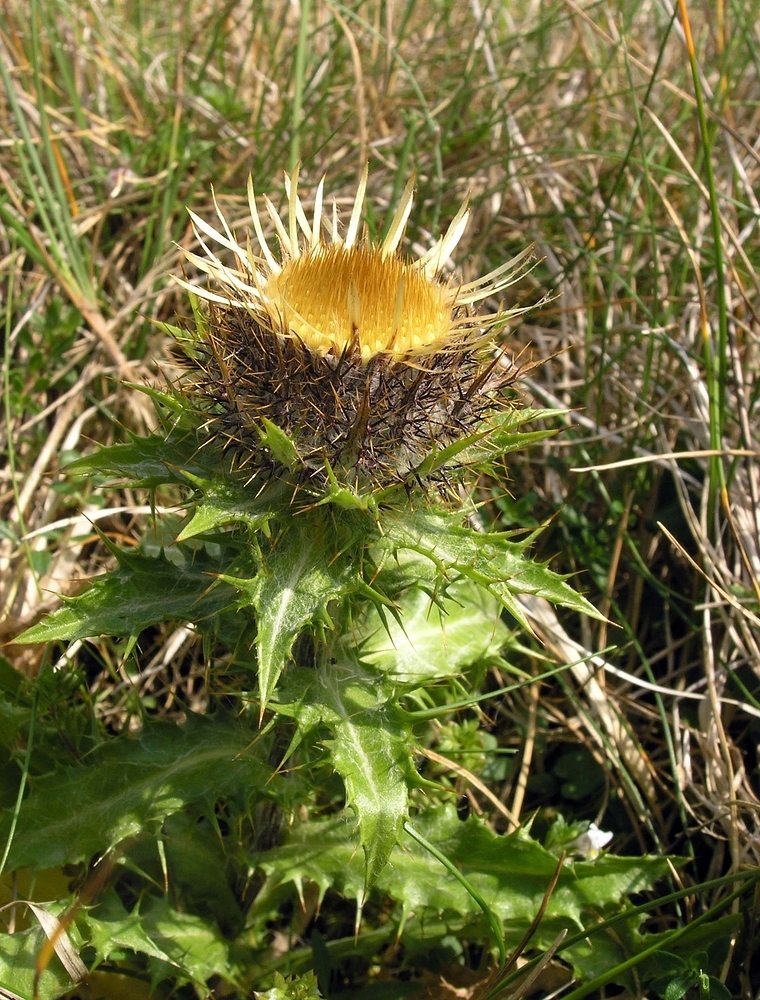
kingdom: Plantae
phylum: Tracheophyta
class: Magnoliopsida
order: Asterales
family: Asteraceae
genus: Carlina
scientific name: Carlina vulgaris
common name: Carline thistle
